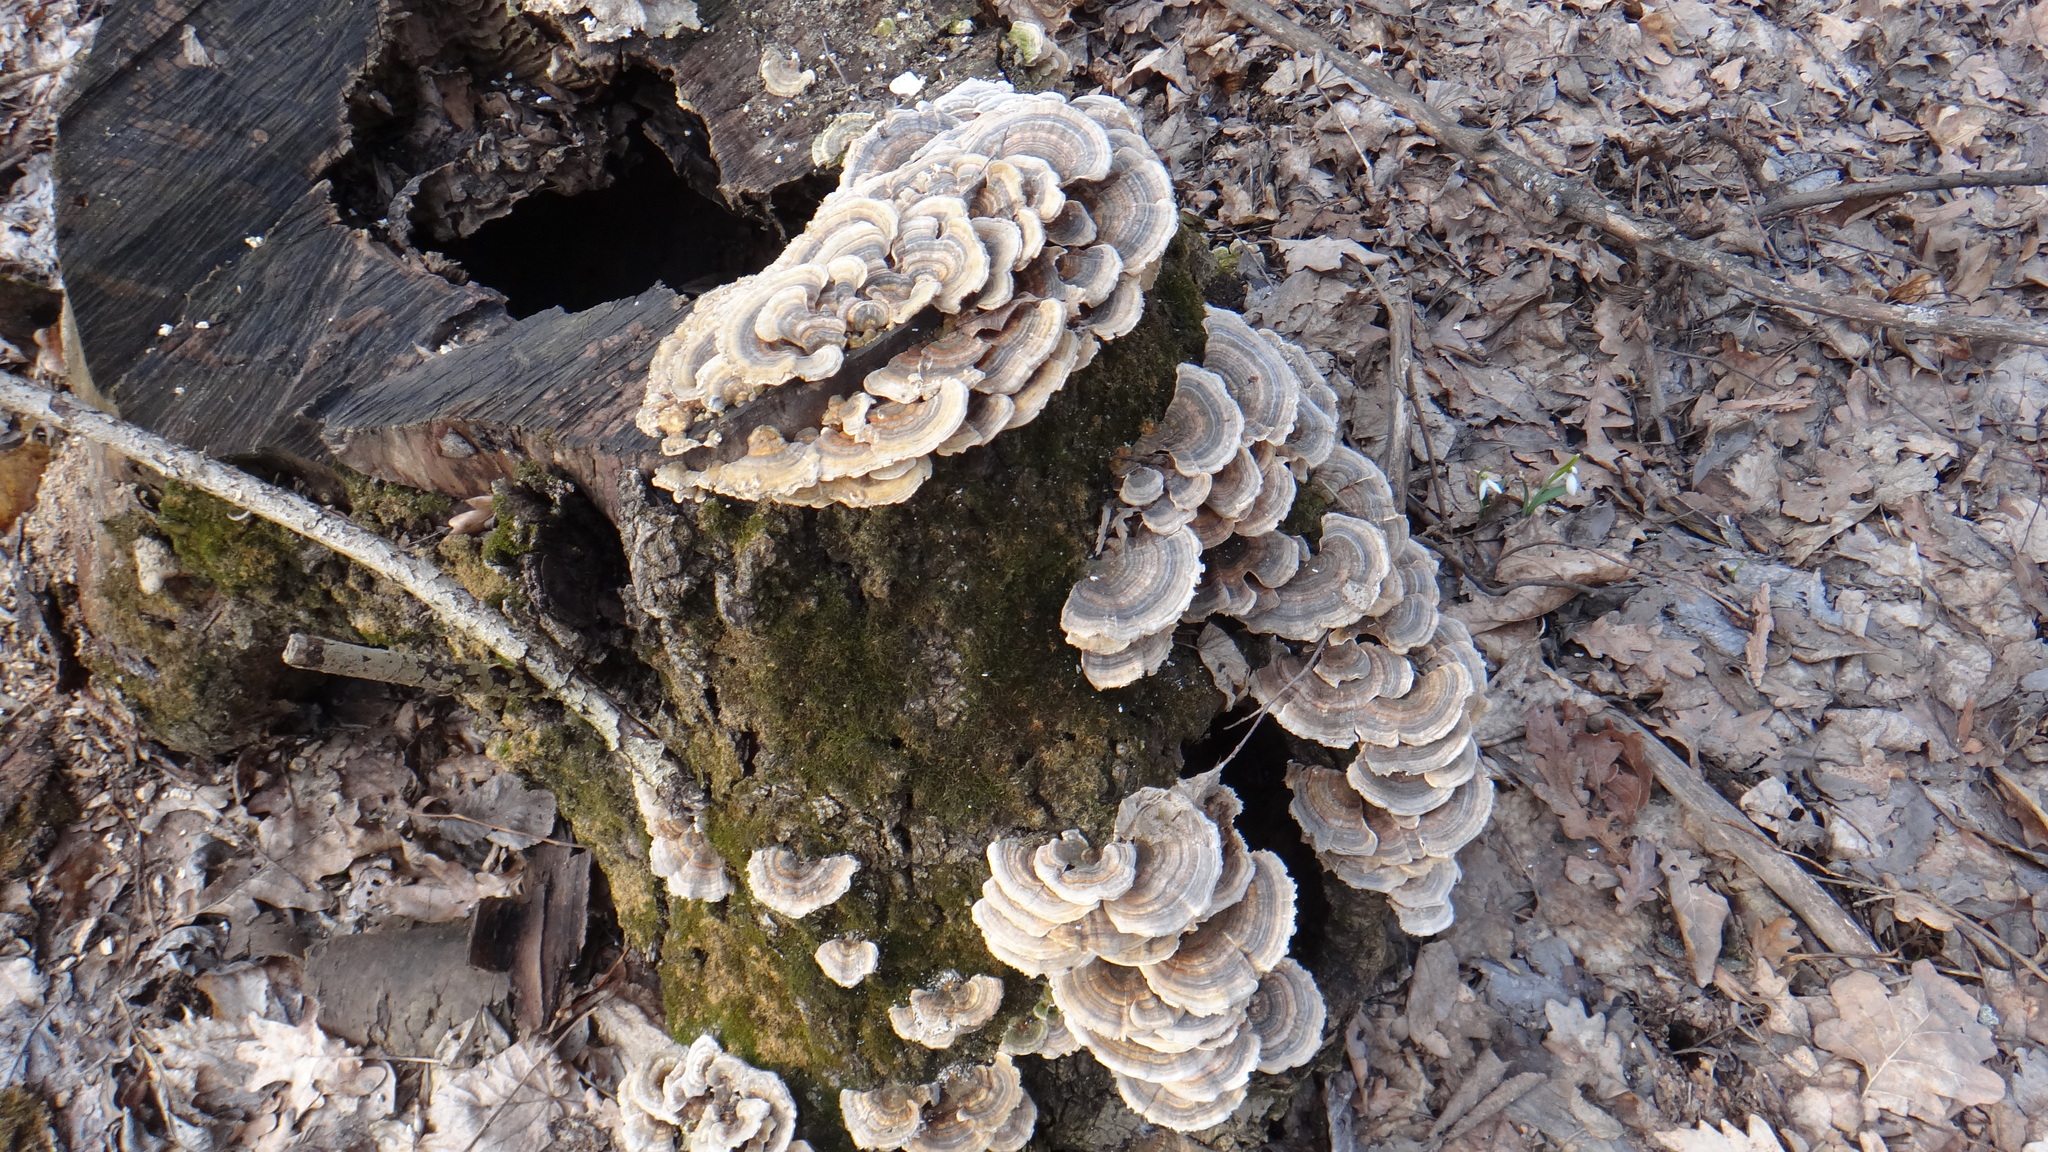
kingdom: Fungi
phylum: Basidiomycota
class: Agaricomycetes
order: Polyporales
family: Polyporaceae
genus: Trametes
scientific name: Trametes versicolor
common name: Turkeytail
